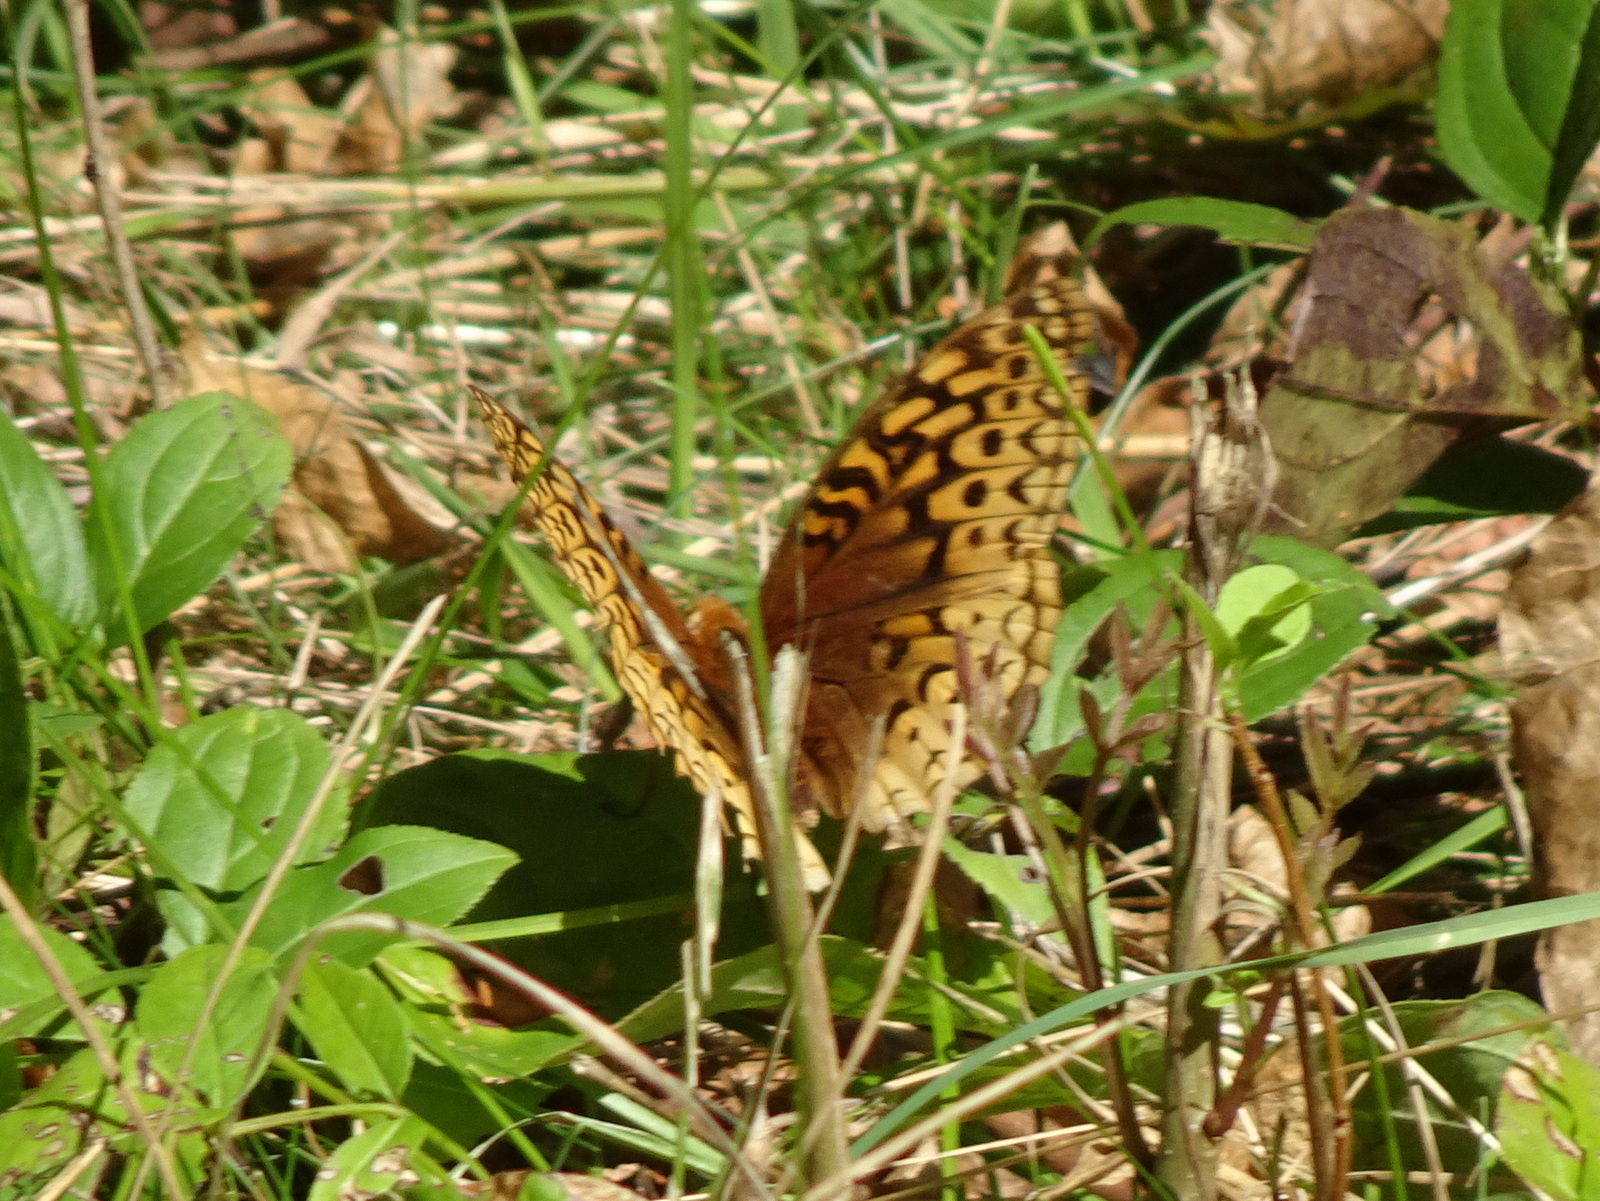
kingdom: Animalia
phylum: Arthropoda
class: Insecta
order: Lepidoptera
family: Nymphalidae
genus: Speyeria
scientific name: Speyeria cybele
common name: Great spangled fritillary
